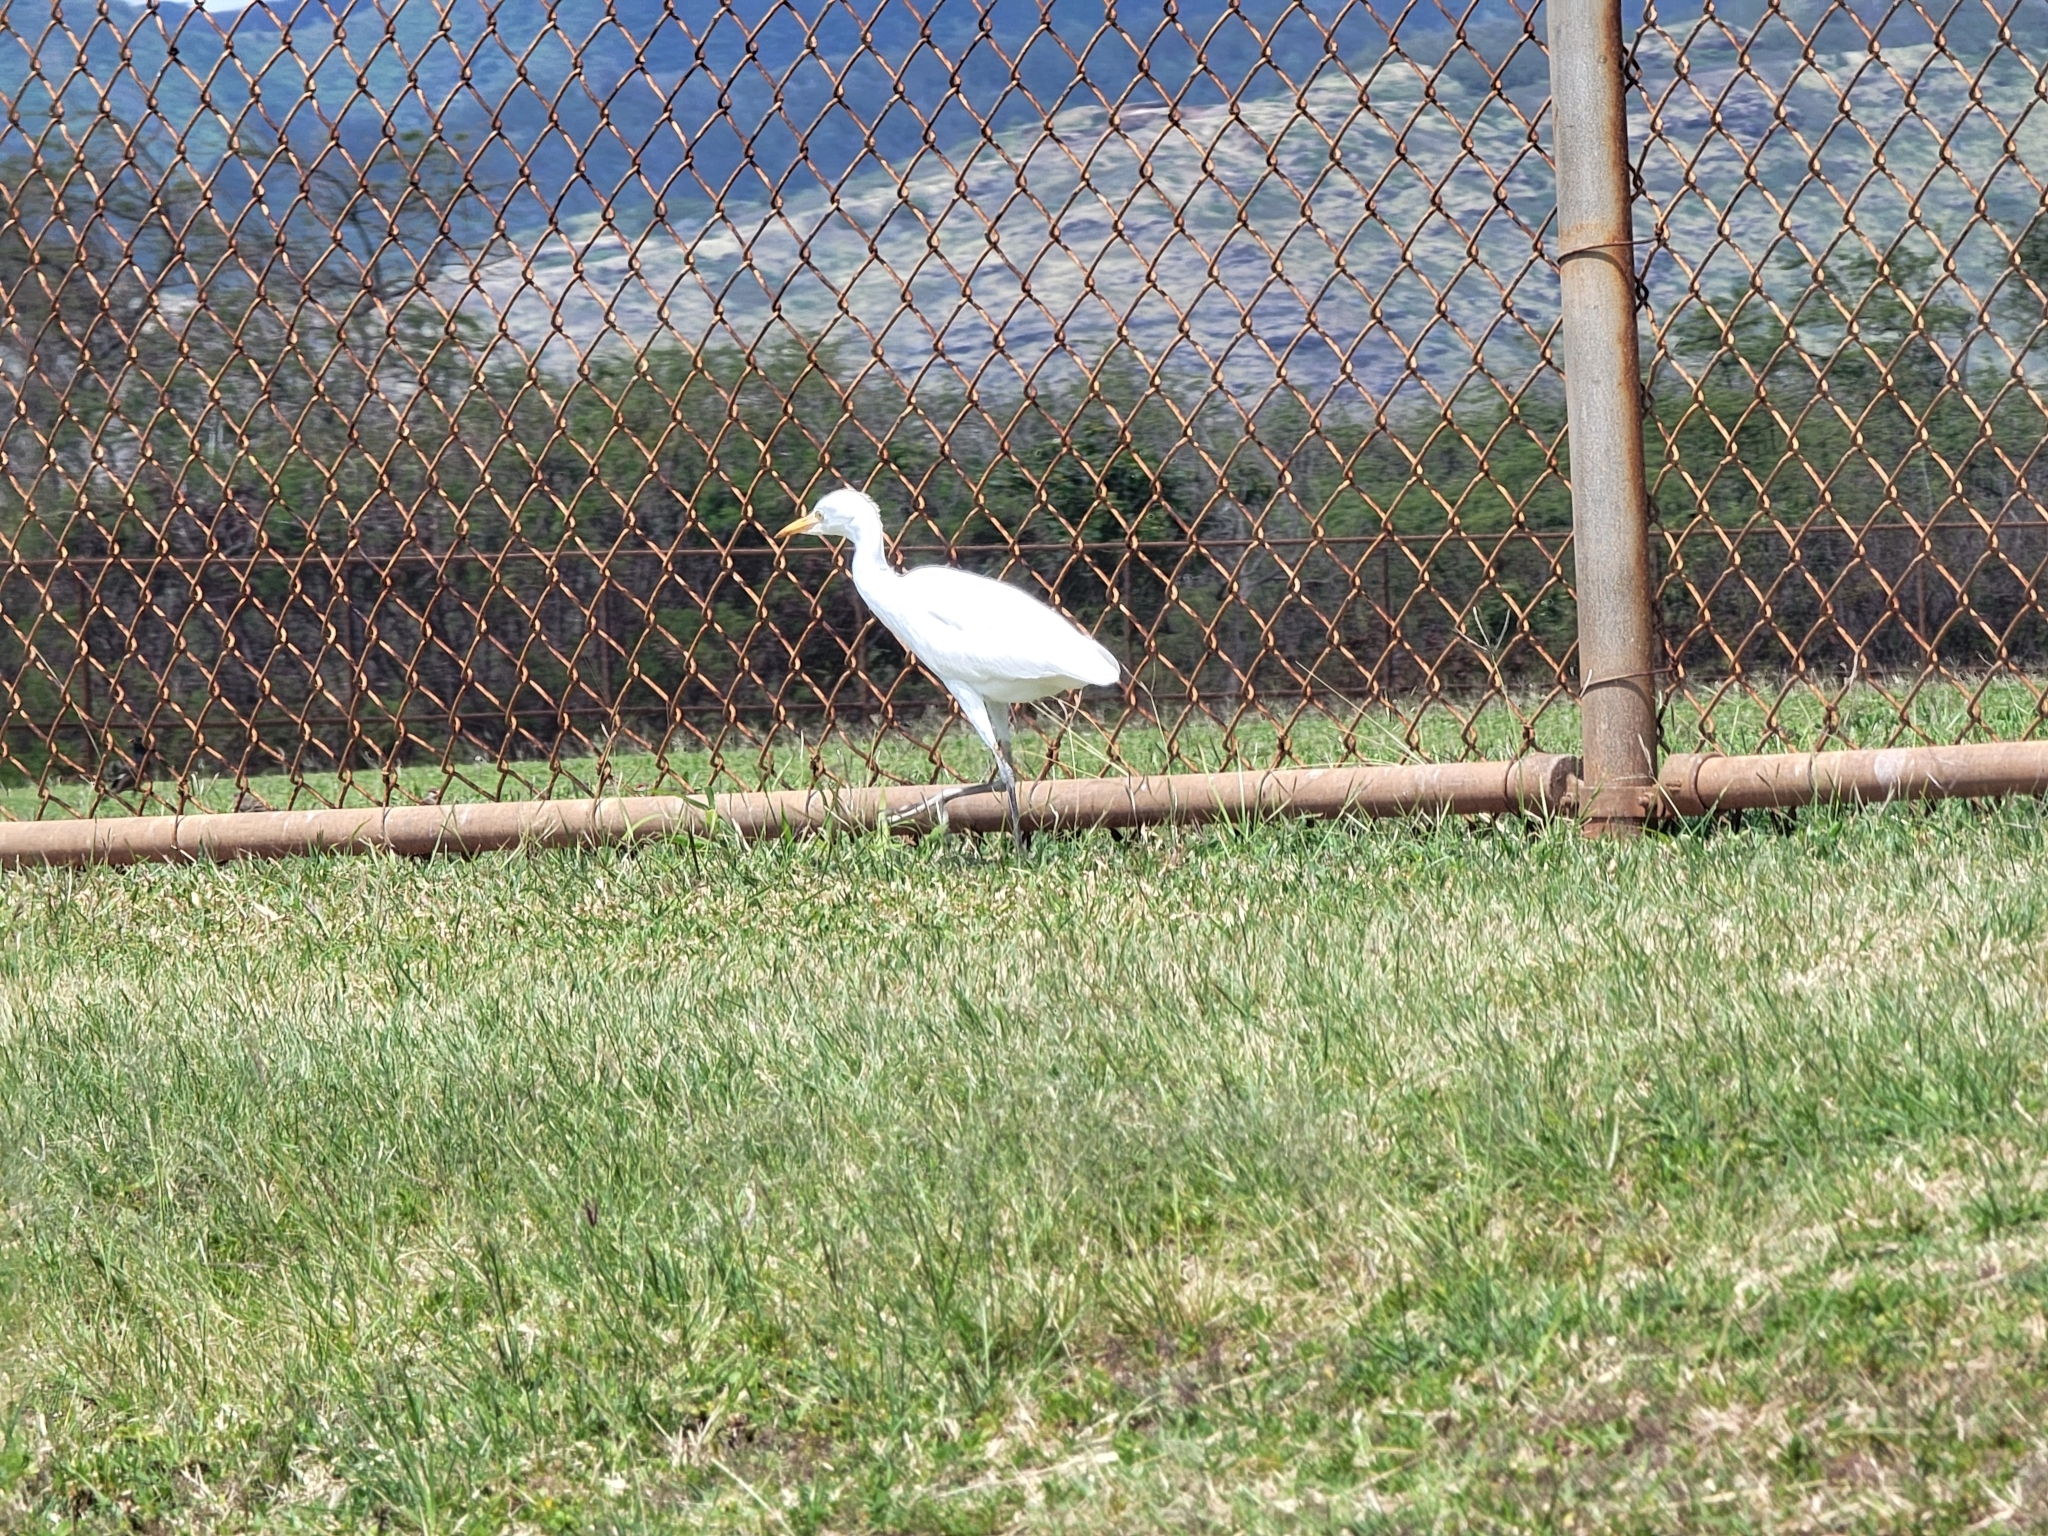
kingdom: Animalia
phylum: Chordata
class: Aves
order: Pelecaniformes
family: Ardeidae
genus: Bubulcus
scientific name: Bubulcus ibis
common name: Cattle egret
